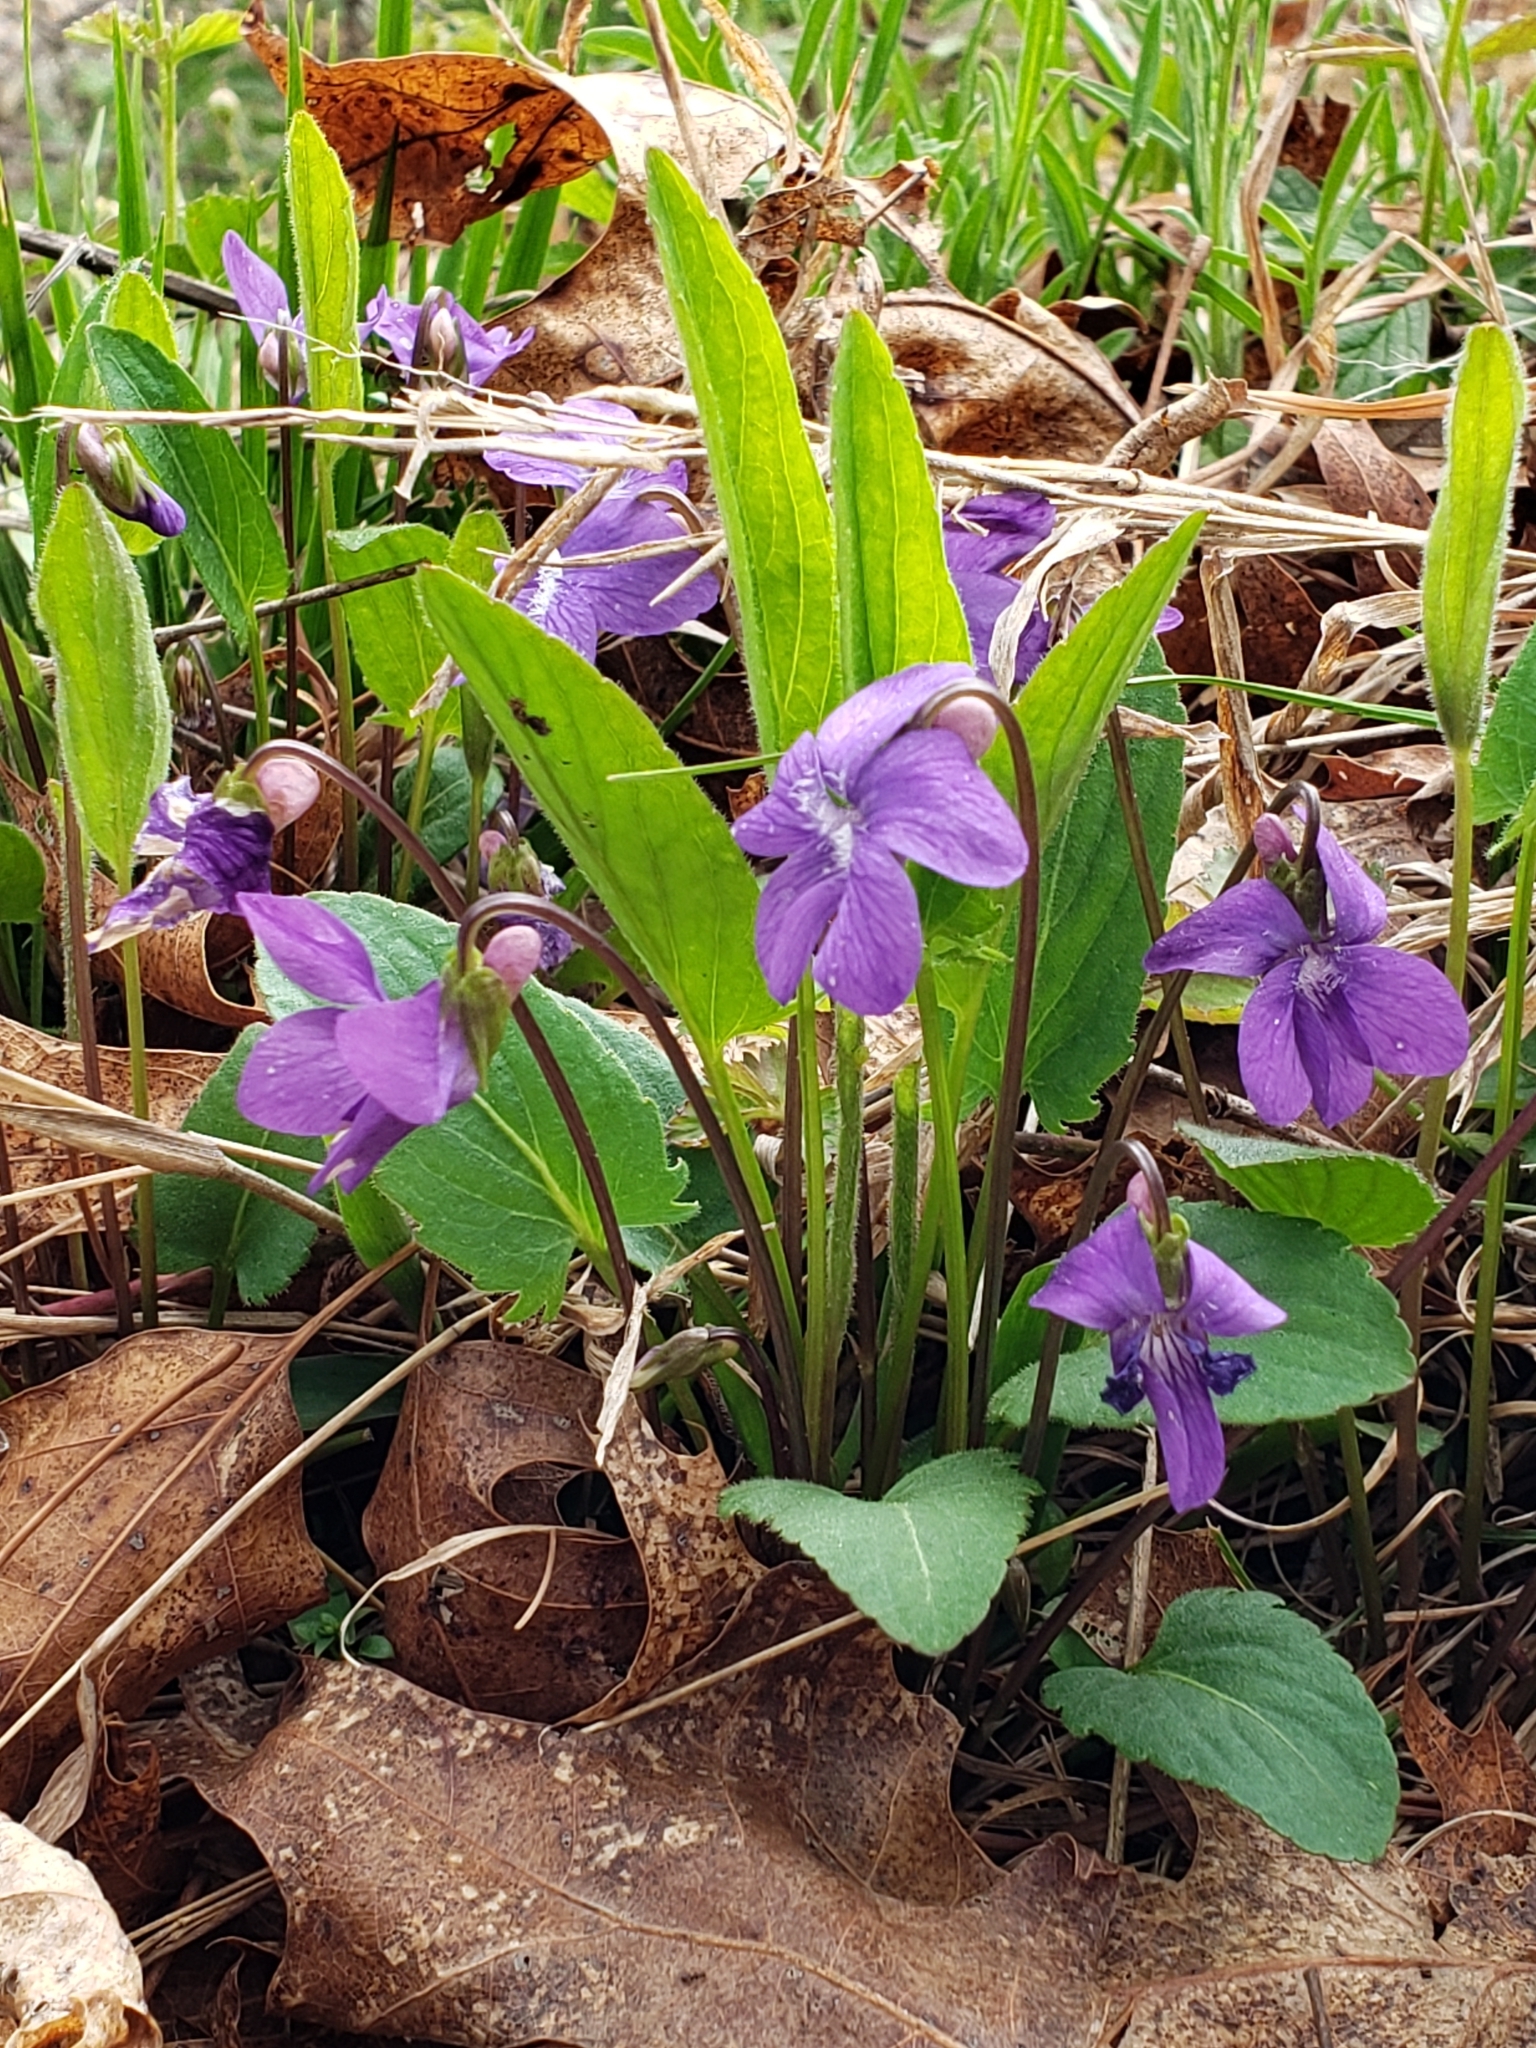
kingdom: Plantae
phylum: Tracheophyta
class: Magnoliopsida
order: Malpighiales
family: Violaceae
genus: Viola
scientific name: Viola sagittata
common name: Arrowhead violet
